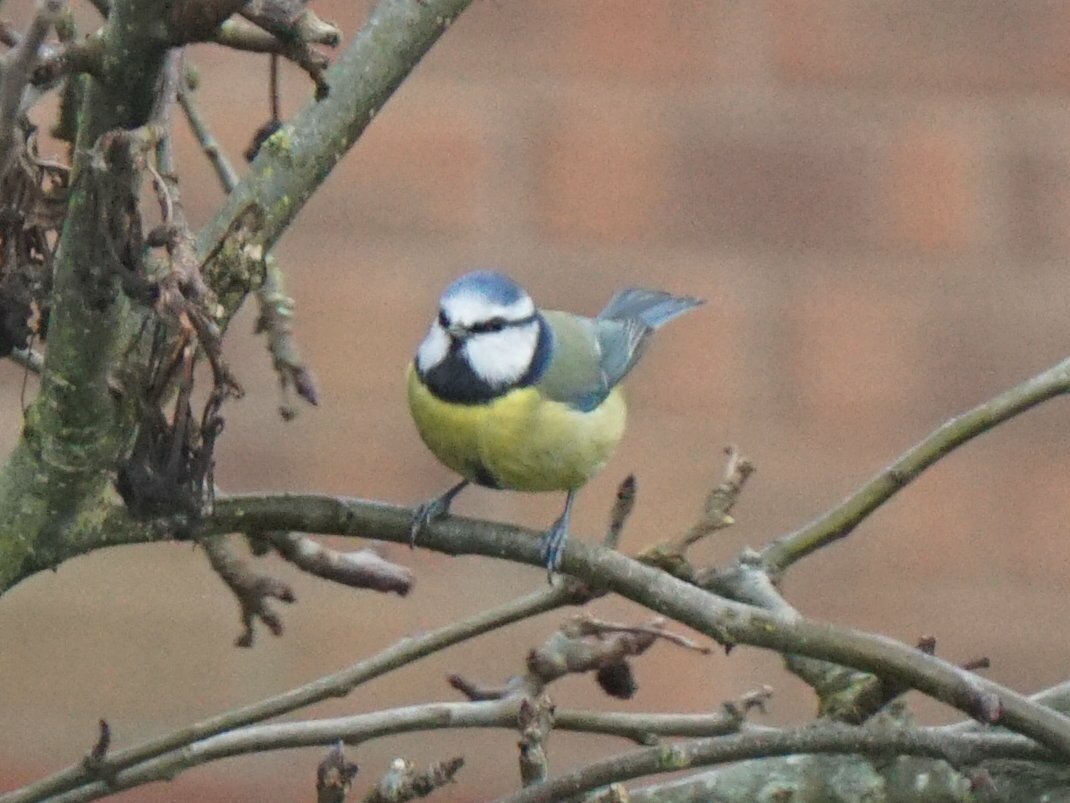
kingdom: Animalia
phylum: Chordata
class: Aves
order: Passeriformes
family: Paridae
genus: Cyanistes
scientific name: Cyanistes caeruleus
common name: Eurasian blue tit
